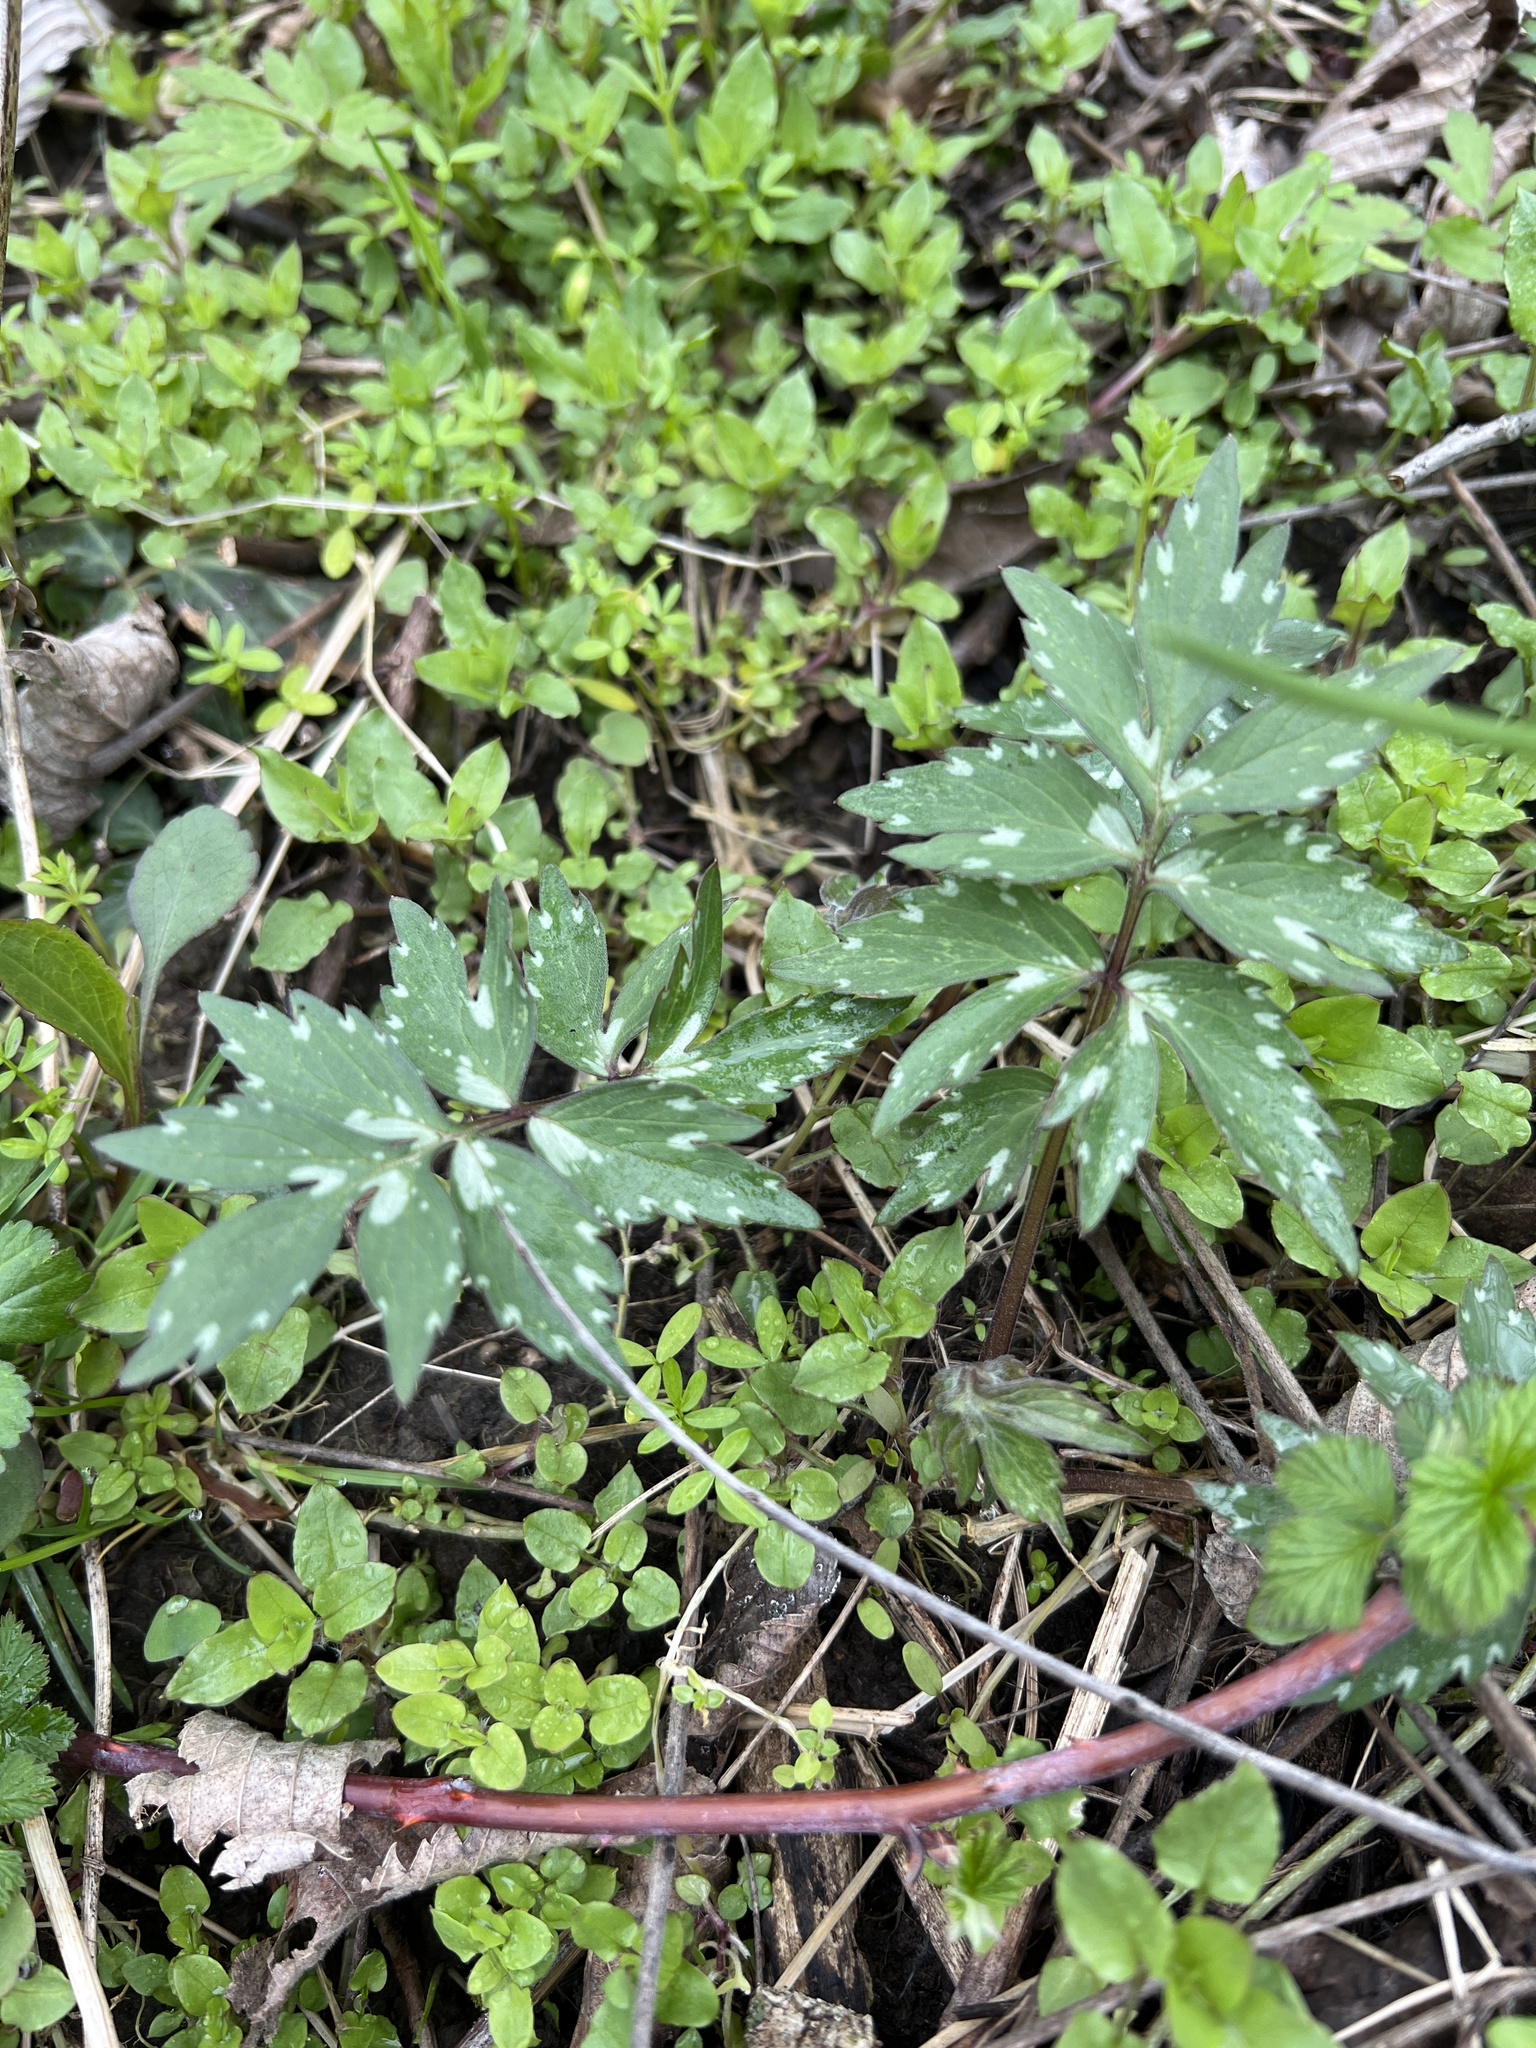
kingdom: Plantae
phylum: Tracheophyta
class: Magnoliopsida
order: Boraginales
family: Hydrophyllaceae
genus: Hydrophyllum
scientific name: Hydrophyllum virginianum
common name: Virginia waterleaf
